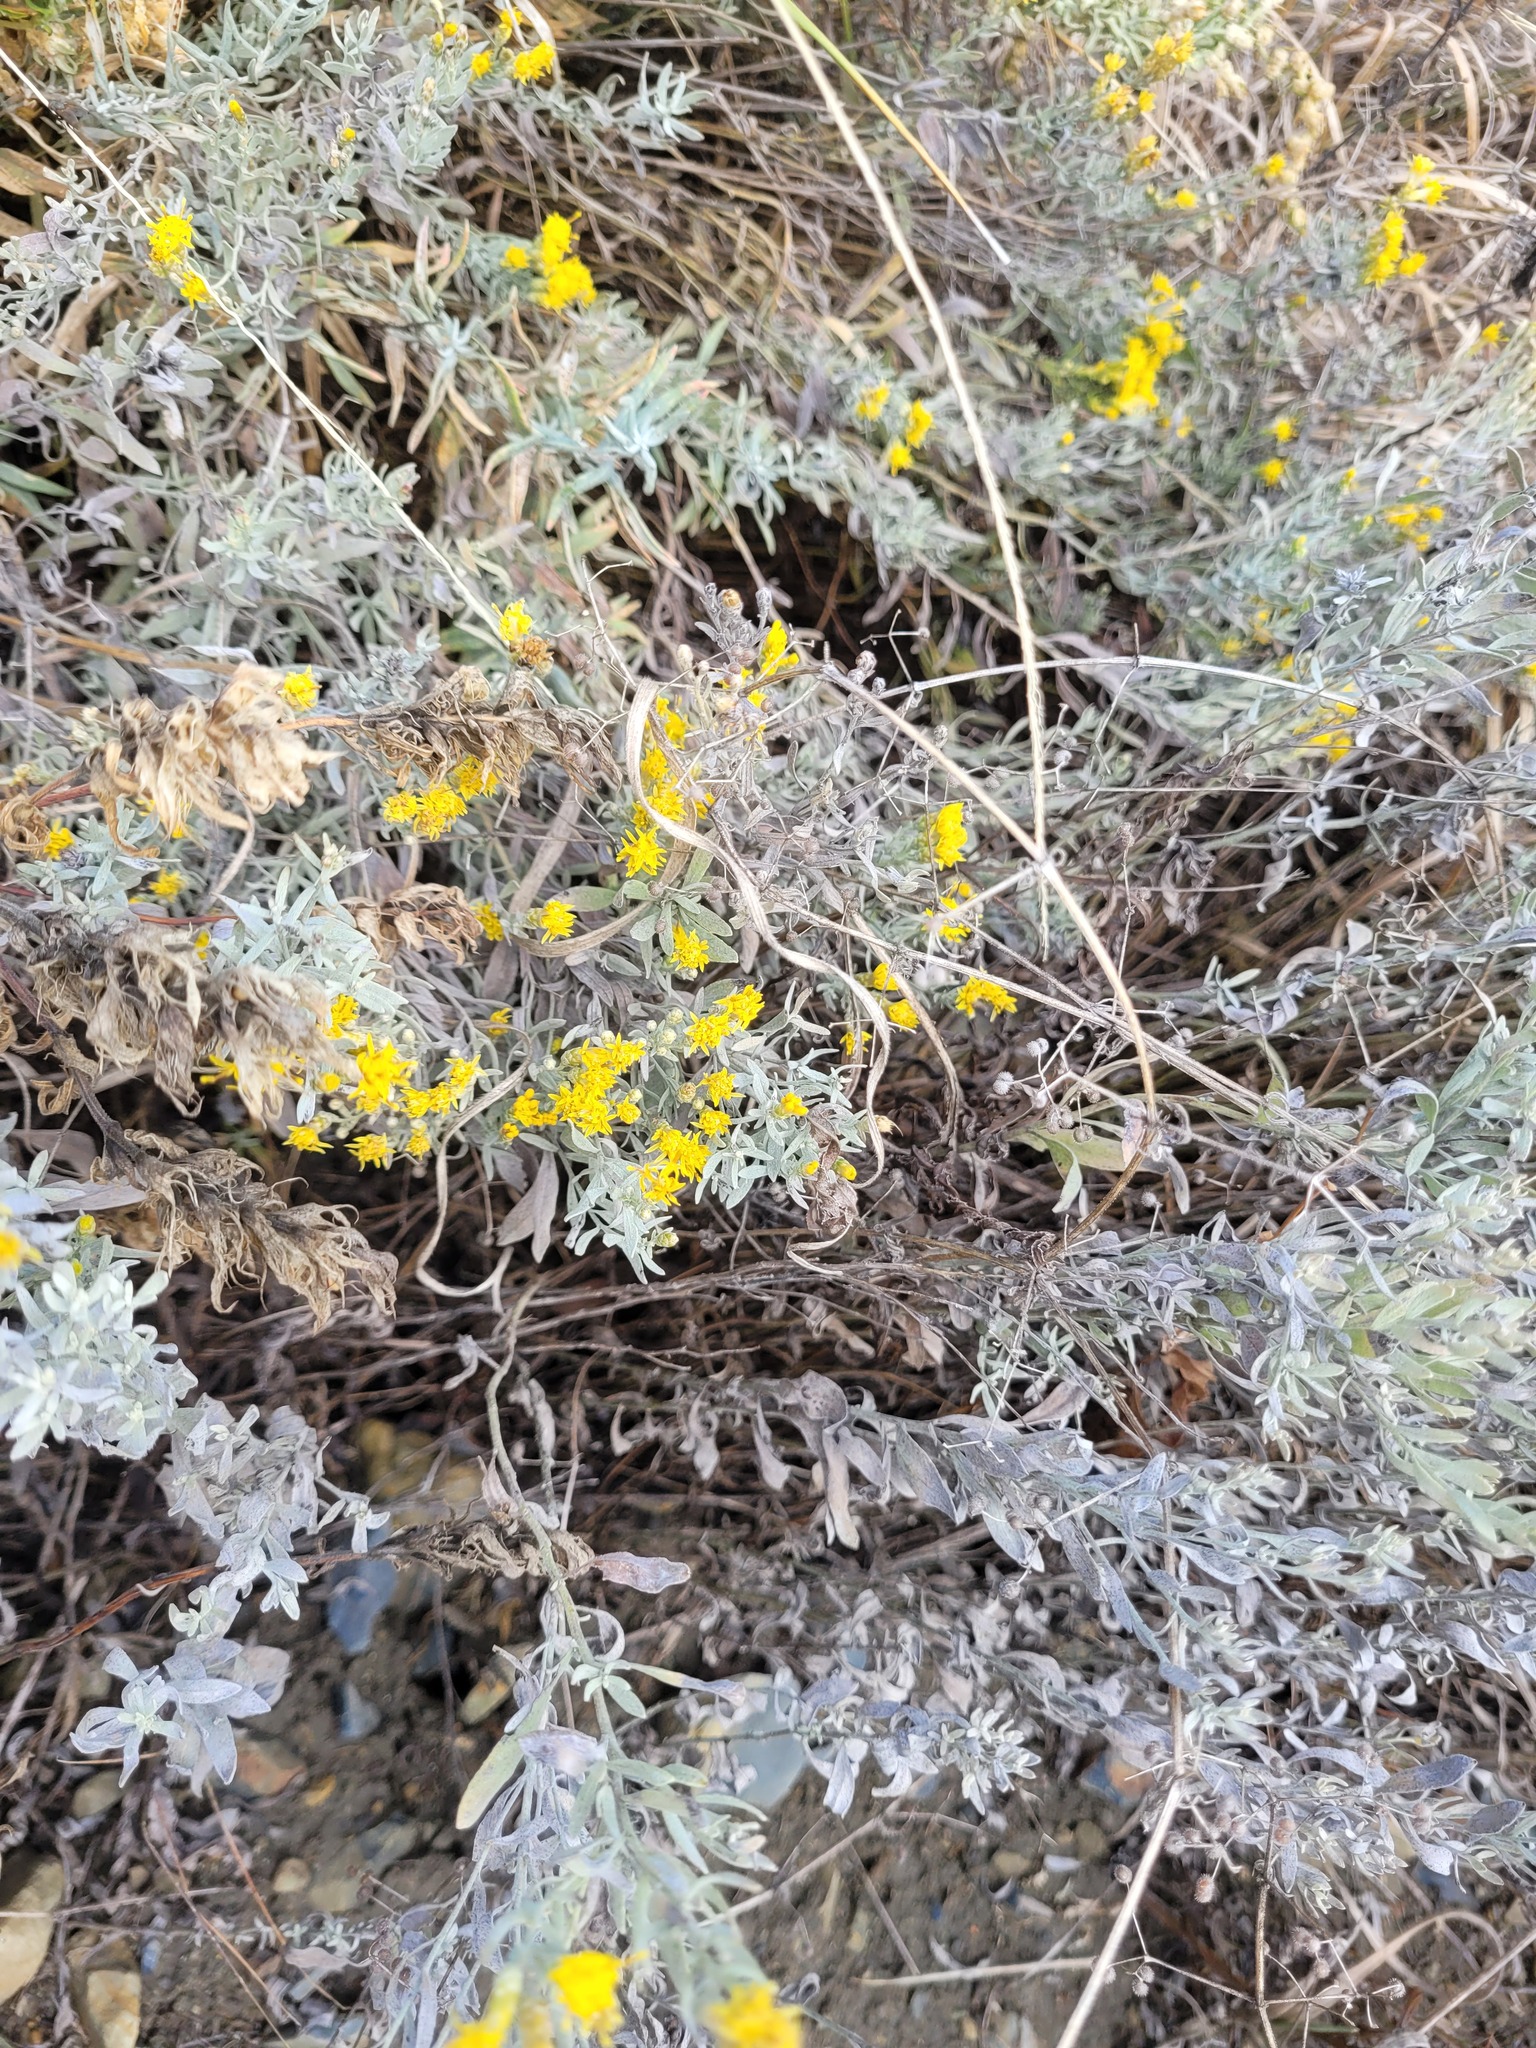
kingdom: Plantae
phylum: Tracheophyta
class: Magnoliopsida
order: Asterales
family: Asteraceae
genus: Galatella
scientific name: Galatella villosa
